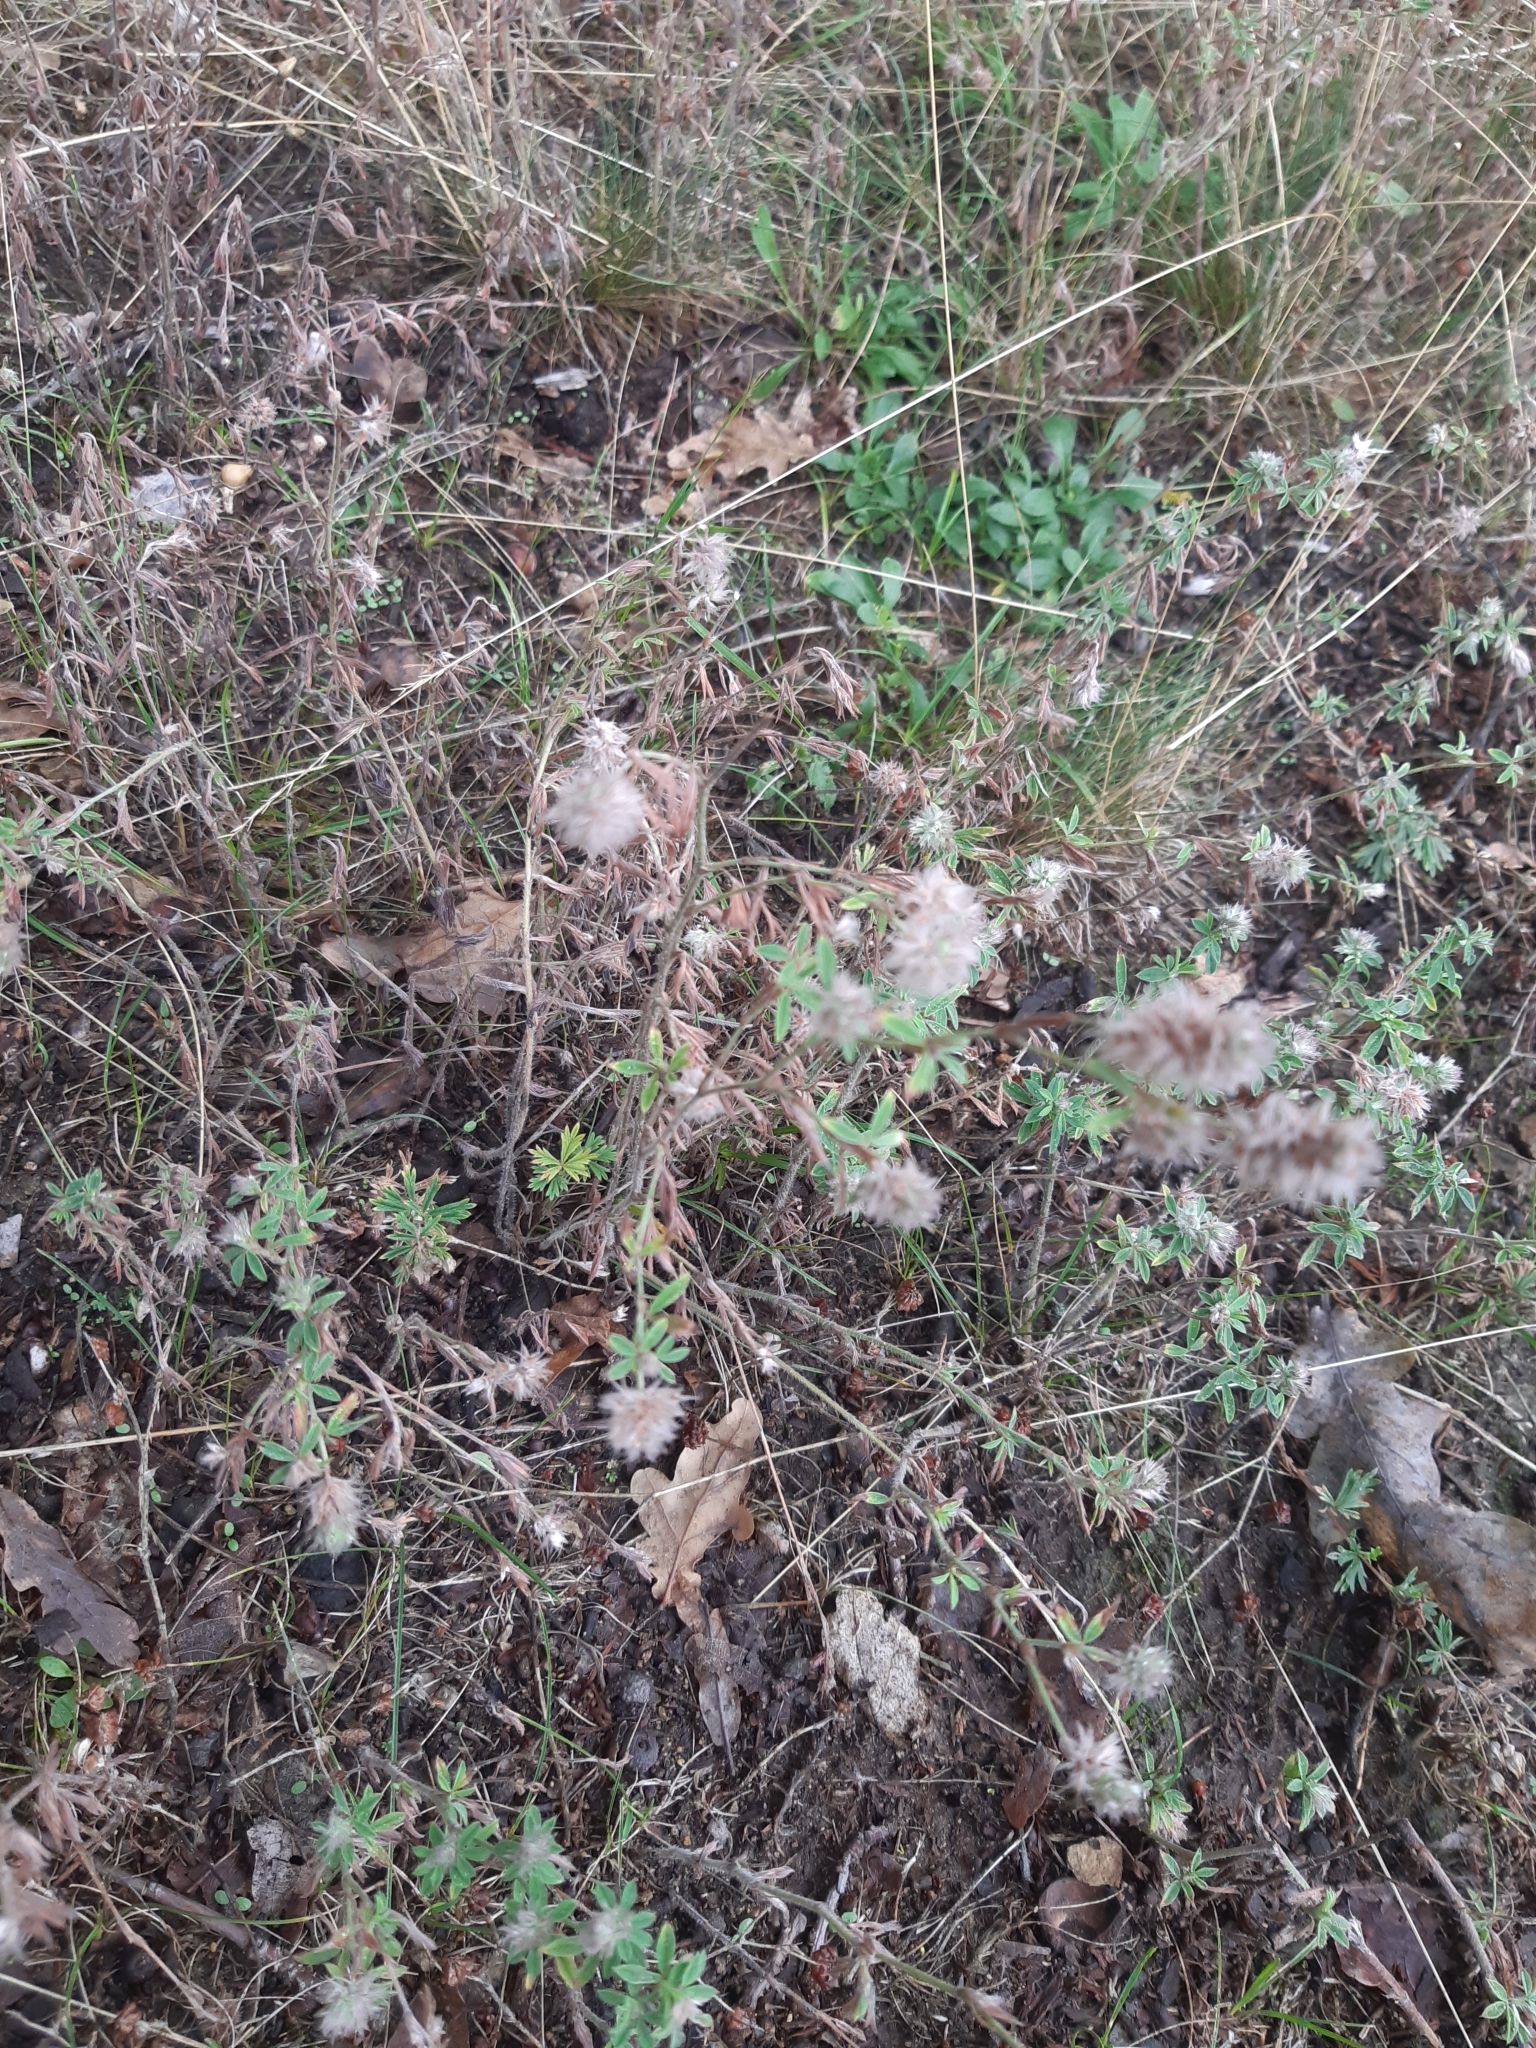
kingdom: Plantae
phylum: Tracheophyta
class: Magnoliopsida
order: Fabales
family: Fabaceae
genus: Trifolium
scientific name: Trifolium arvense
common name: Hare's-foot clover
